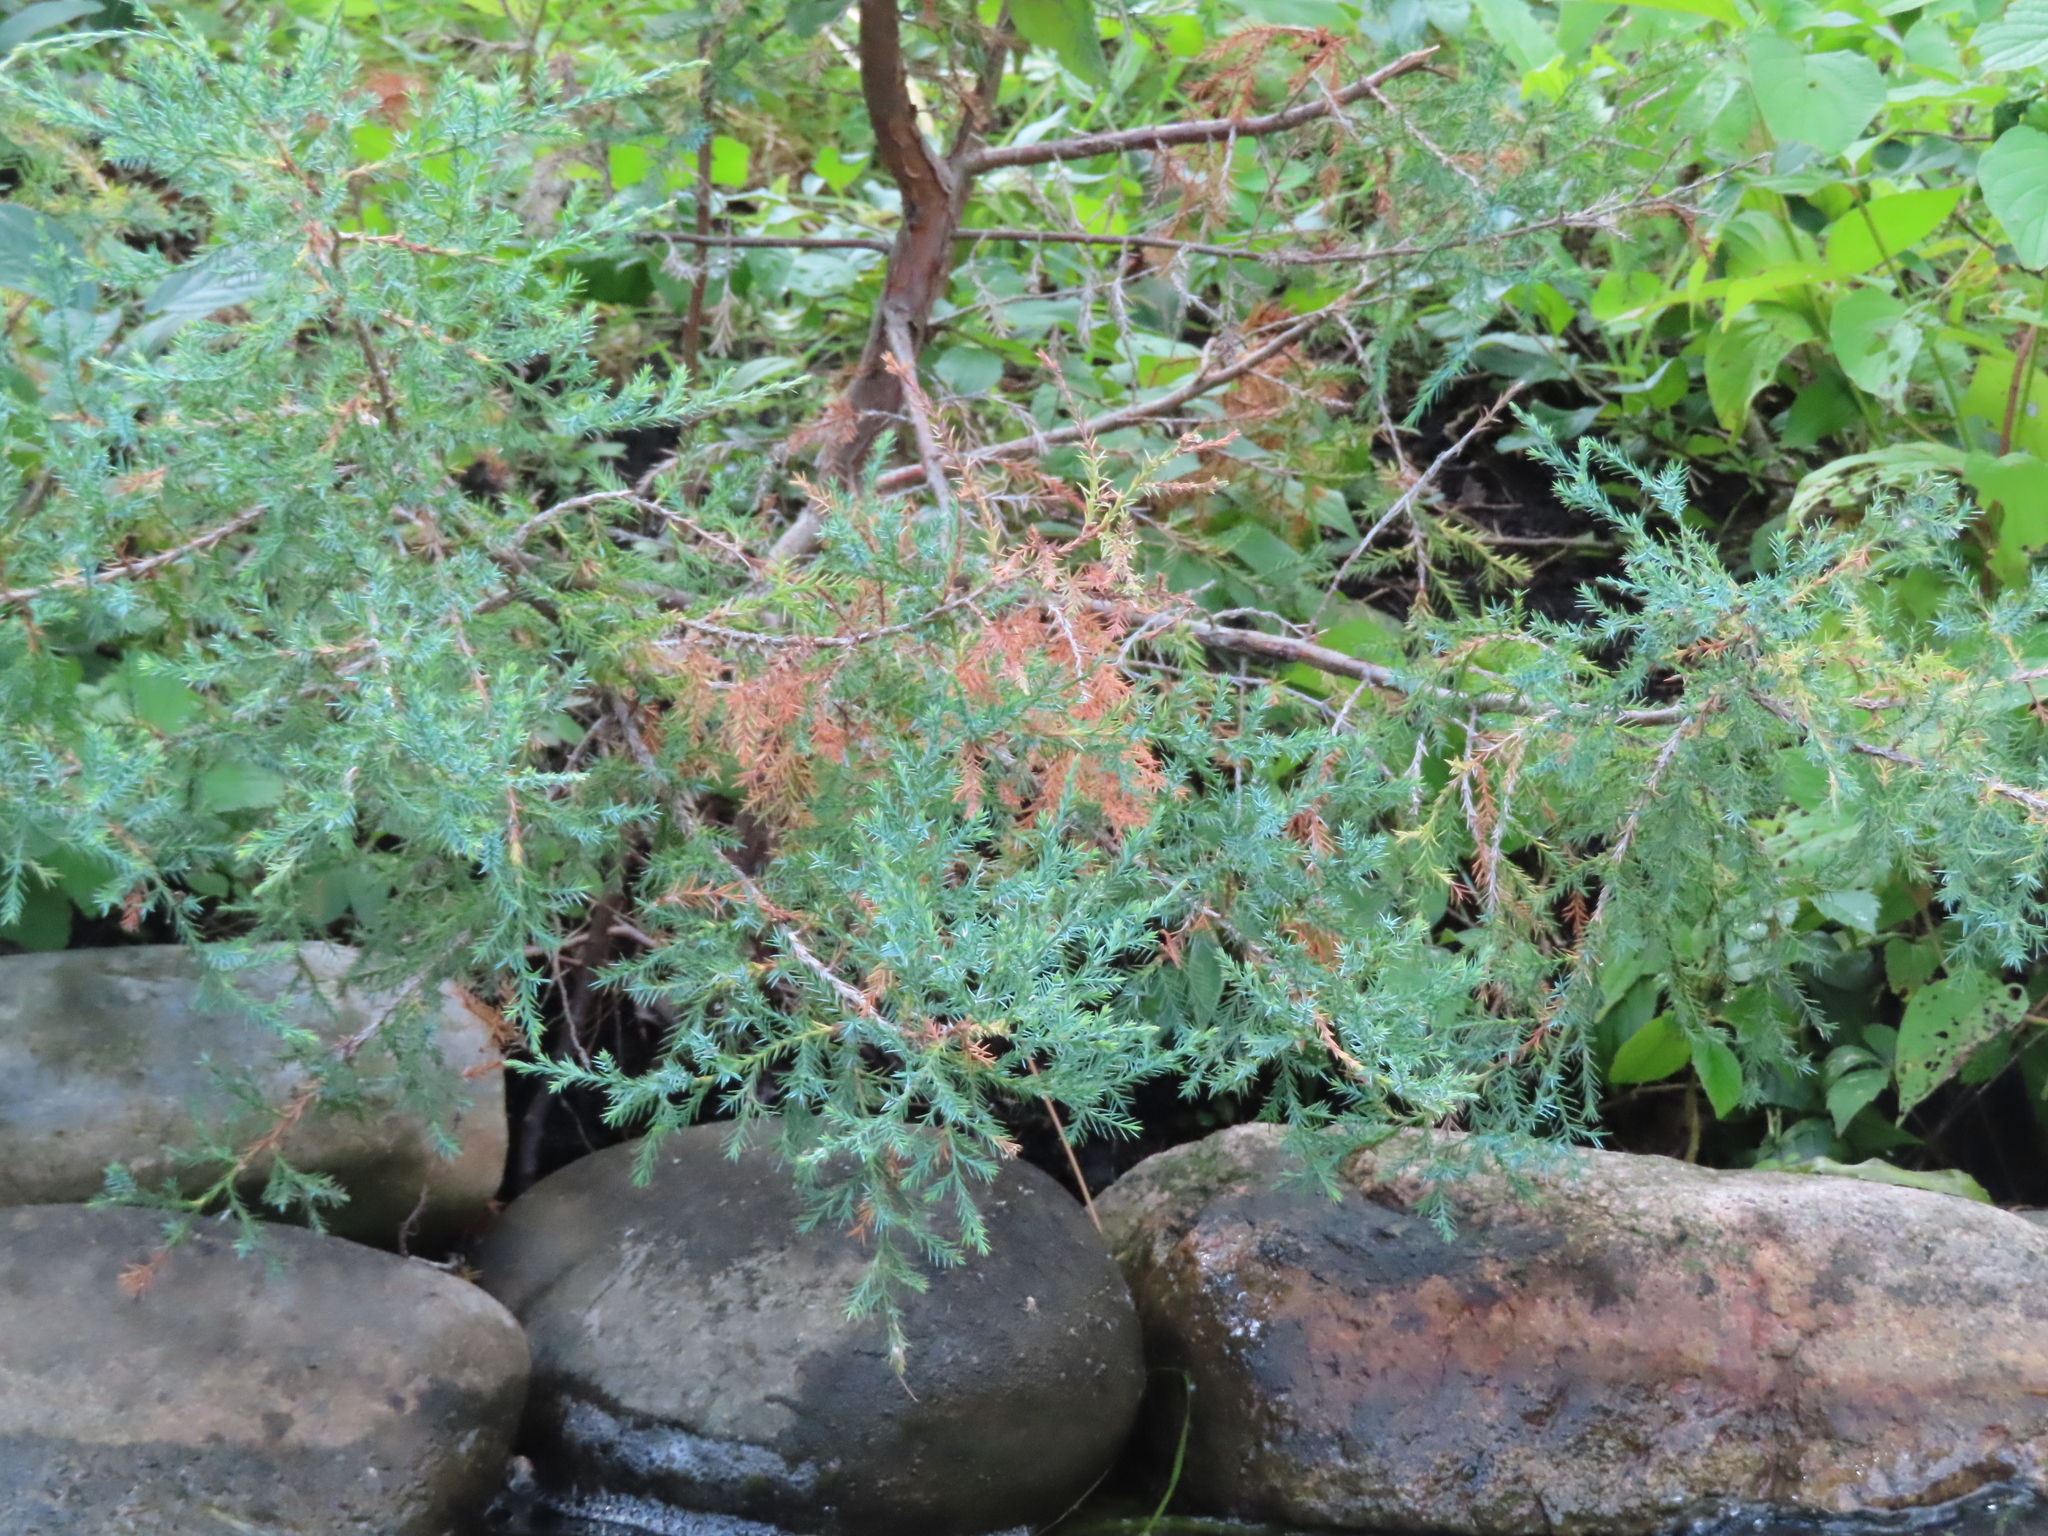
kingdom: Plantae
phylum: Tracheophyta
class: Pinopsida
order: Pinales
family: Cupressaceae
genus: Juniperus
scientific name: Juniperus virginiana
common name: Red juniper
